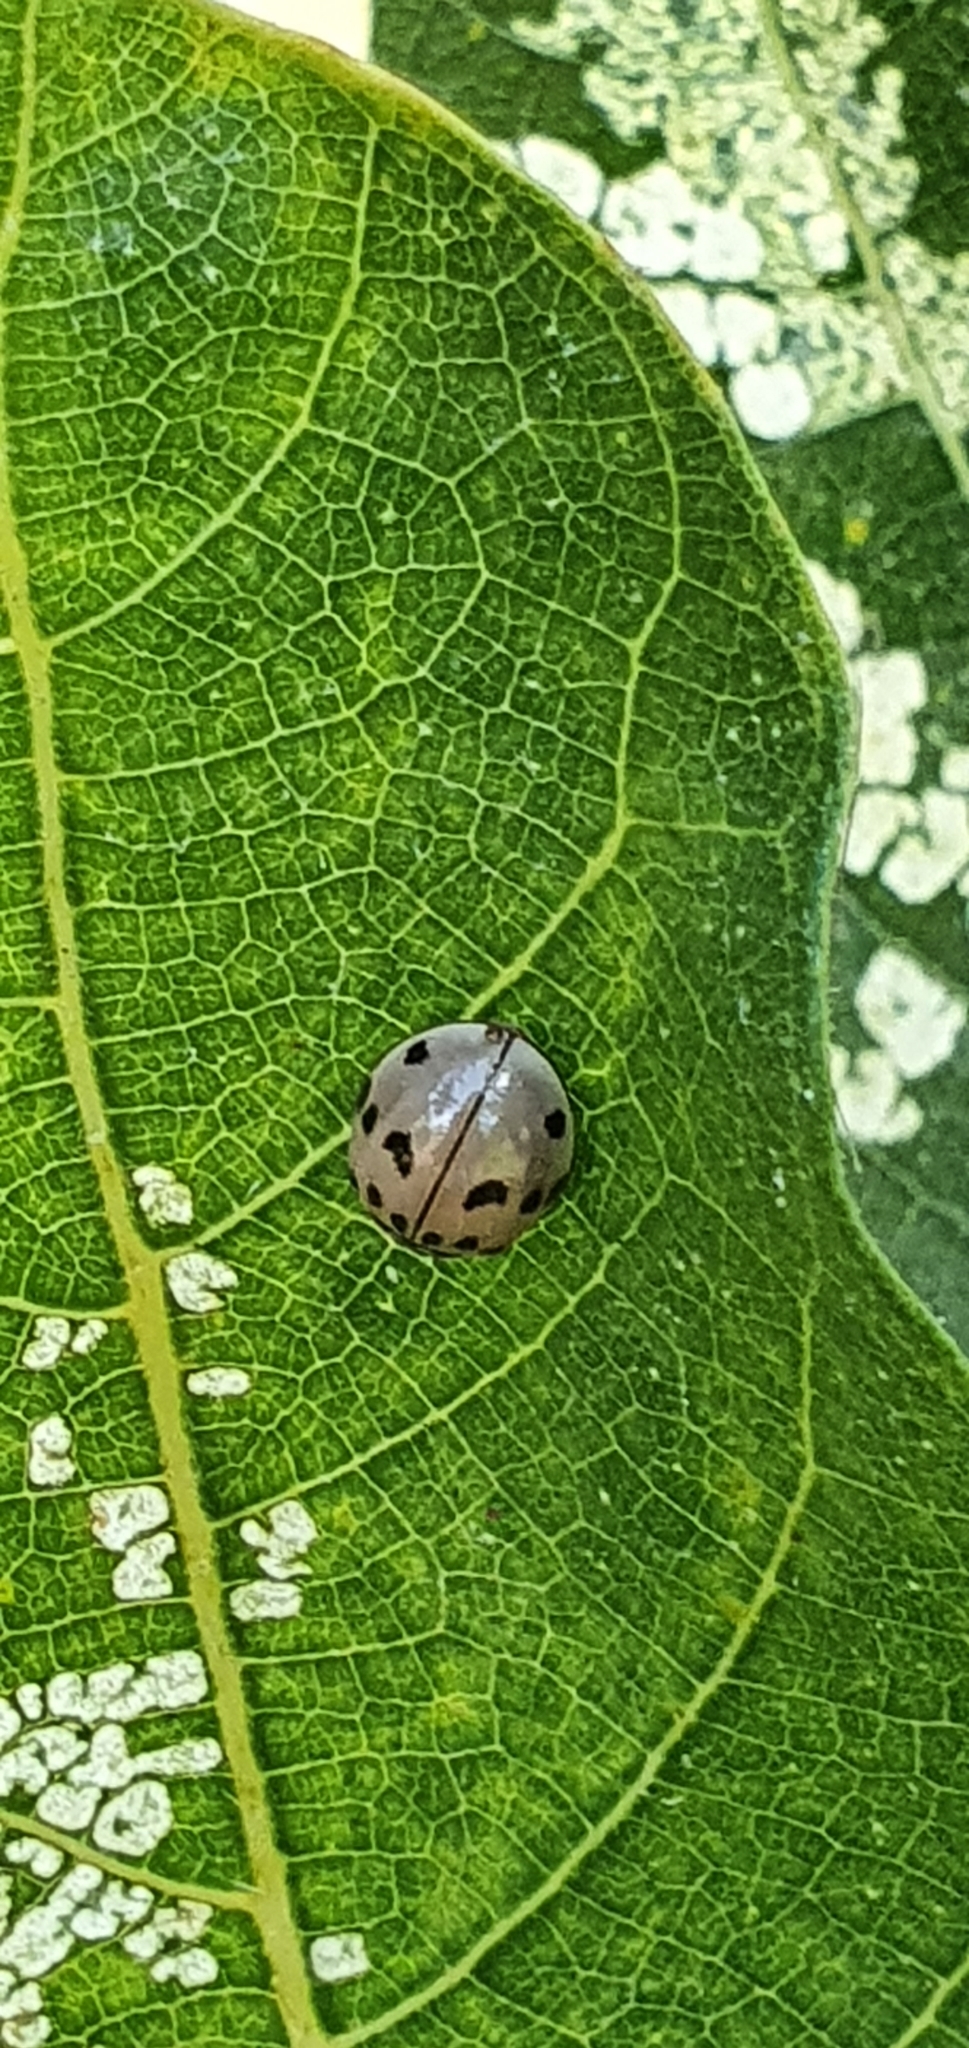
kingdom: Animalia
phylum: Arthropoda
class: Insecta
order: Coleoptera
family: Coccinellidae
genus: Olla
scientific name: Olla v-nigrum
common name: Ashy gray lady beetle
